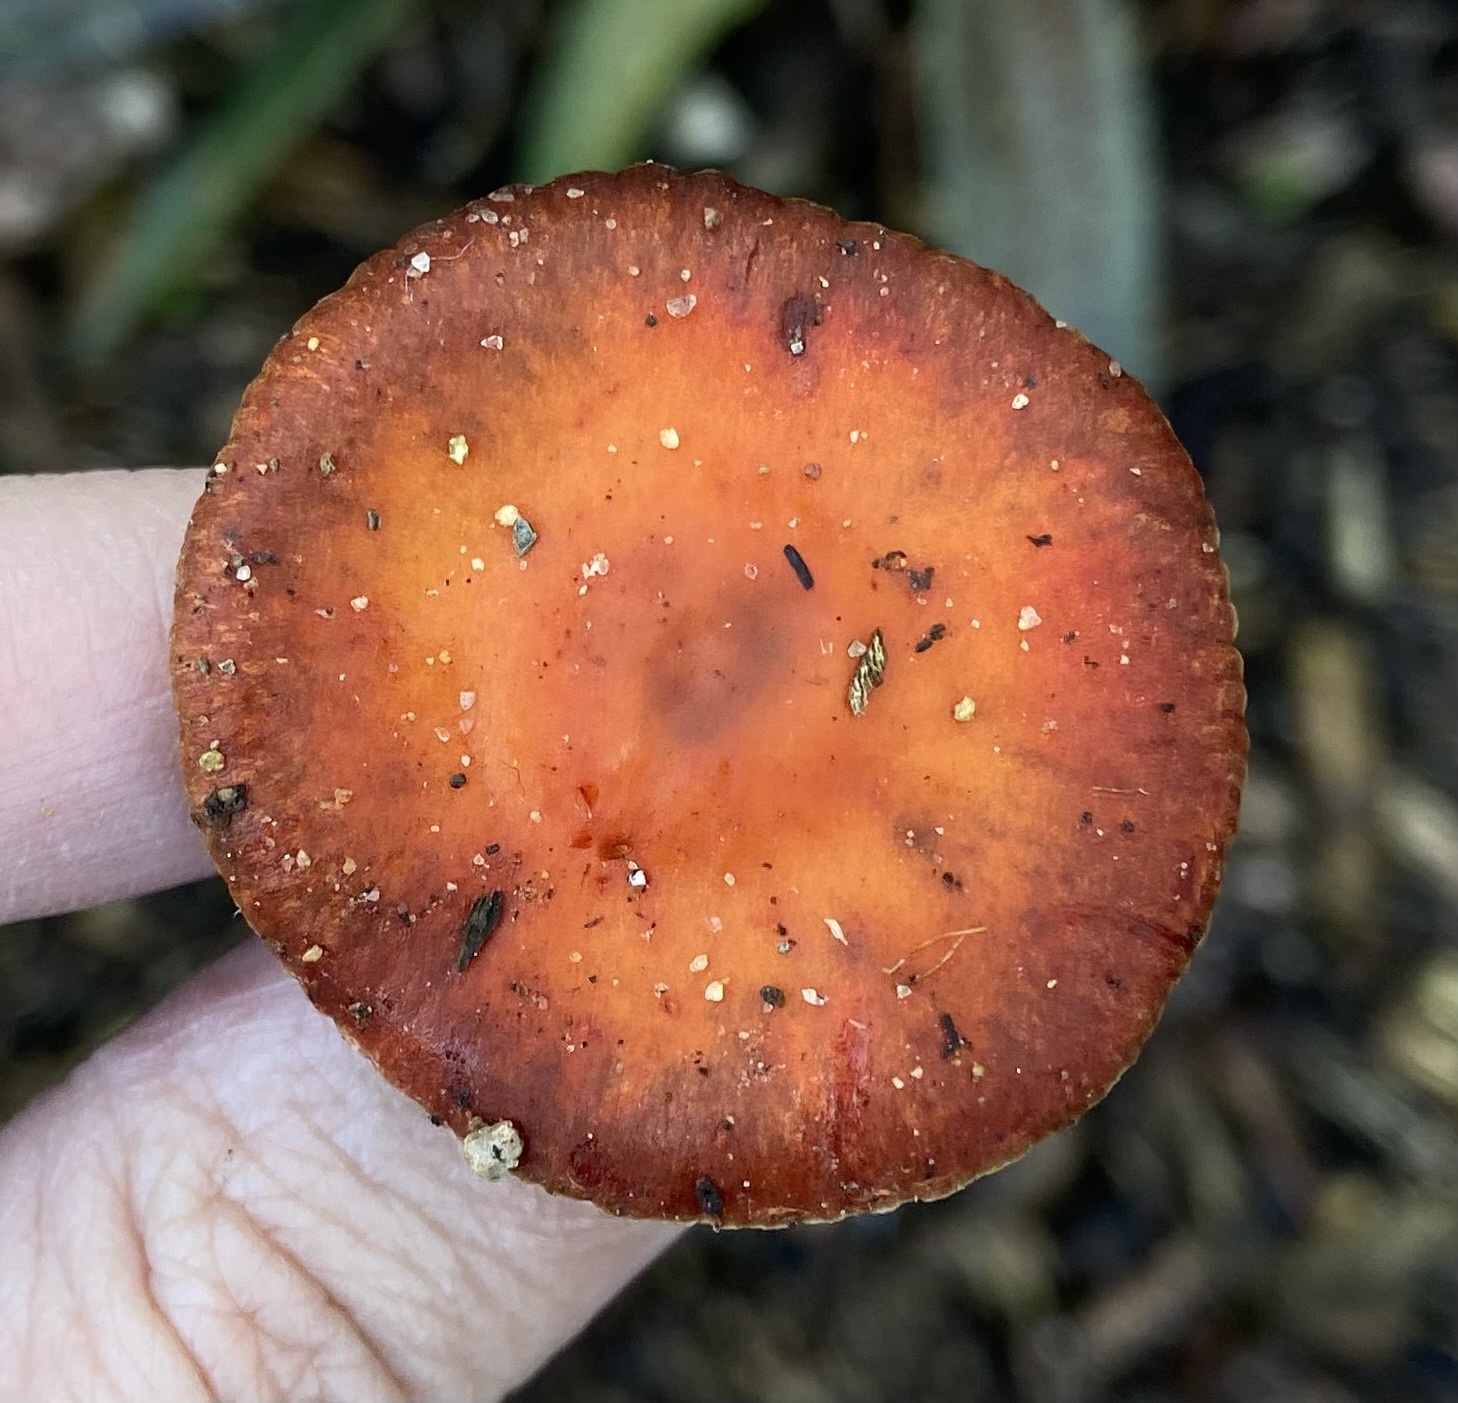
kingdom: Fungi
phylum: Basidiomycota
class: Agaricomycetes
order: Agaricales
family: Strophariaceae
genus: Leratiomyces
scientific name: Leratiomyces ceres
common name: Redlead roundhead
